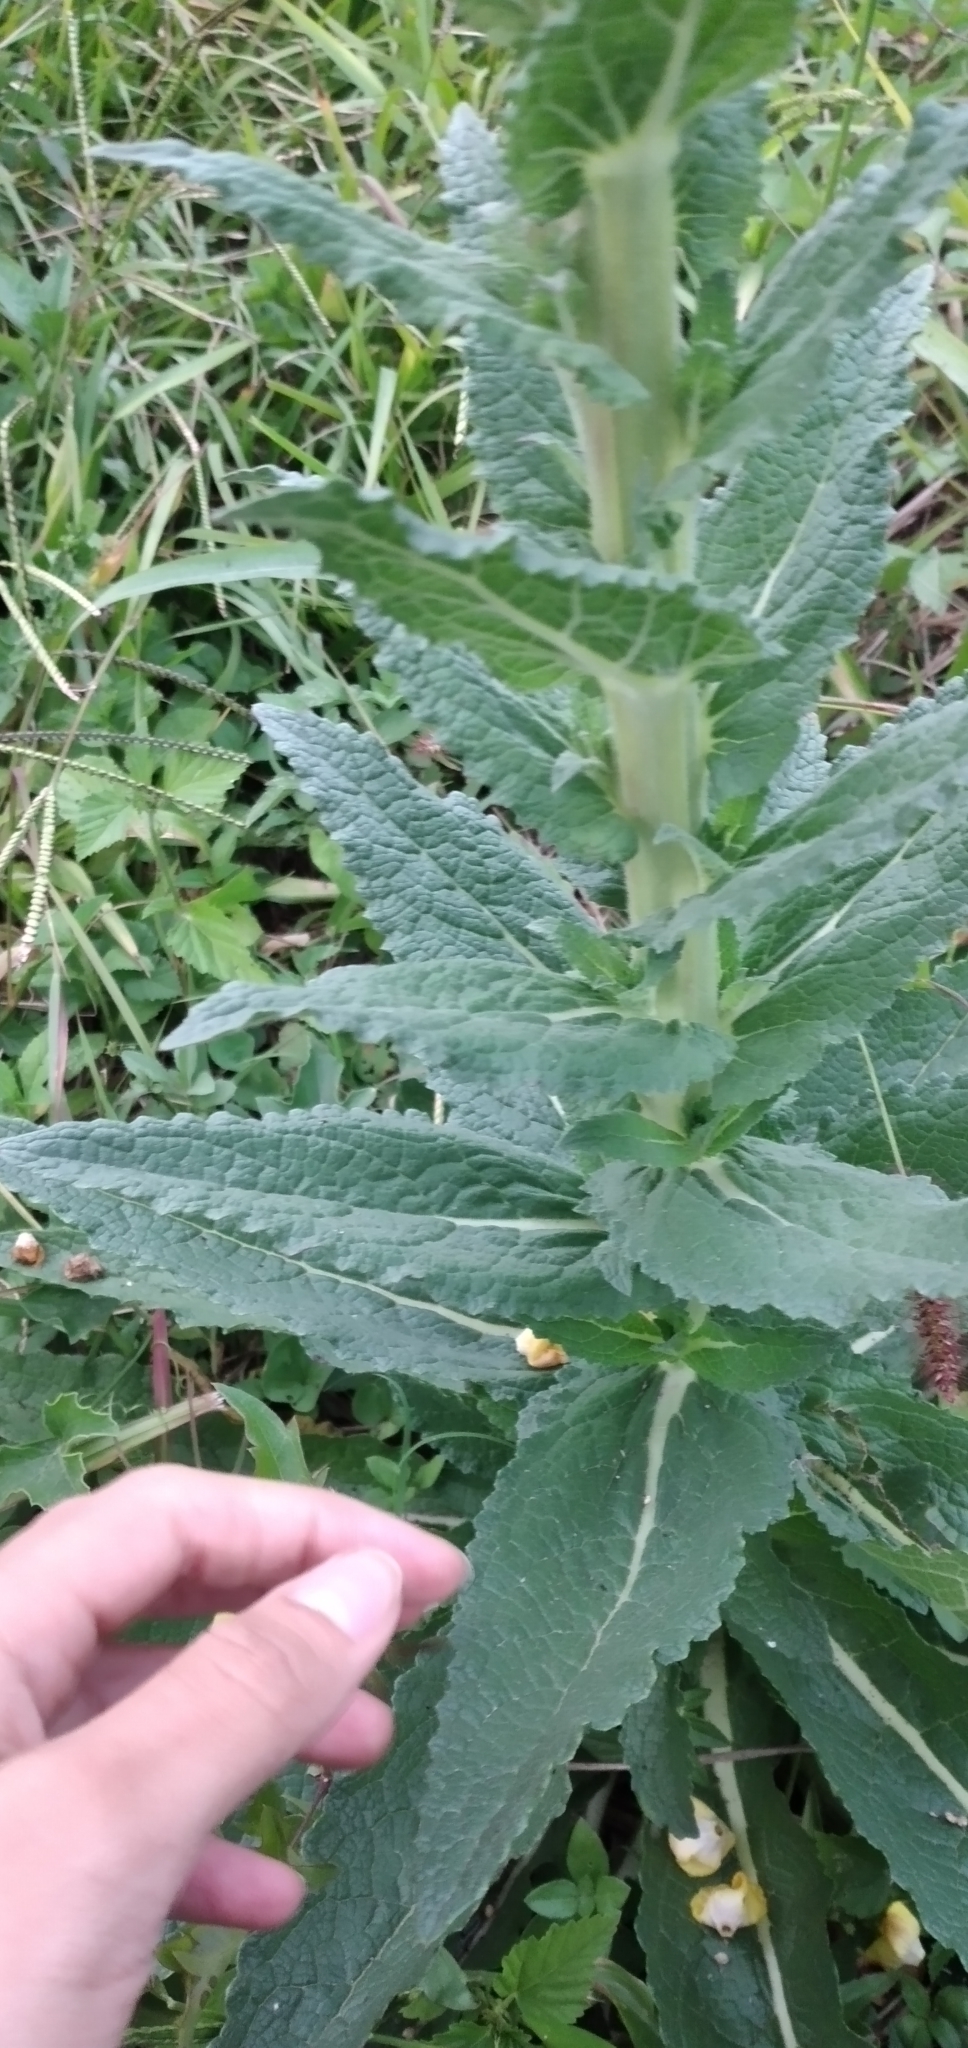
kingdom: Plantae
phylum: Tracheophyta
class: Magnoliopsida
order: Lamiales
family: Scrophulariaceae
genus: Verbascum
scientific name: Verbascum virgatum
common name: Twiggy mullein
